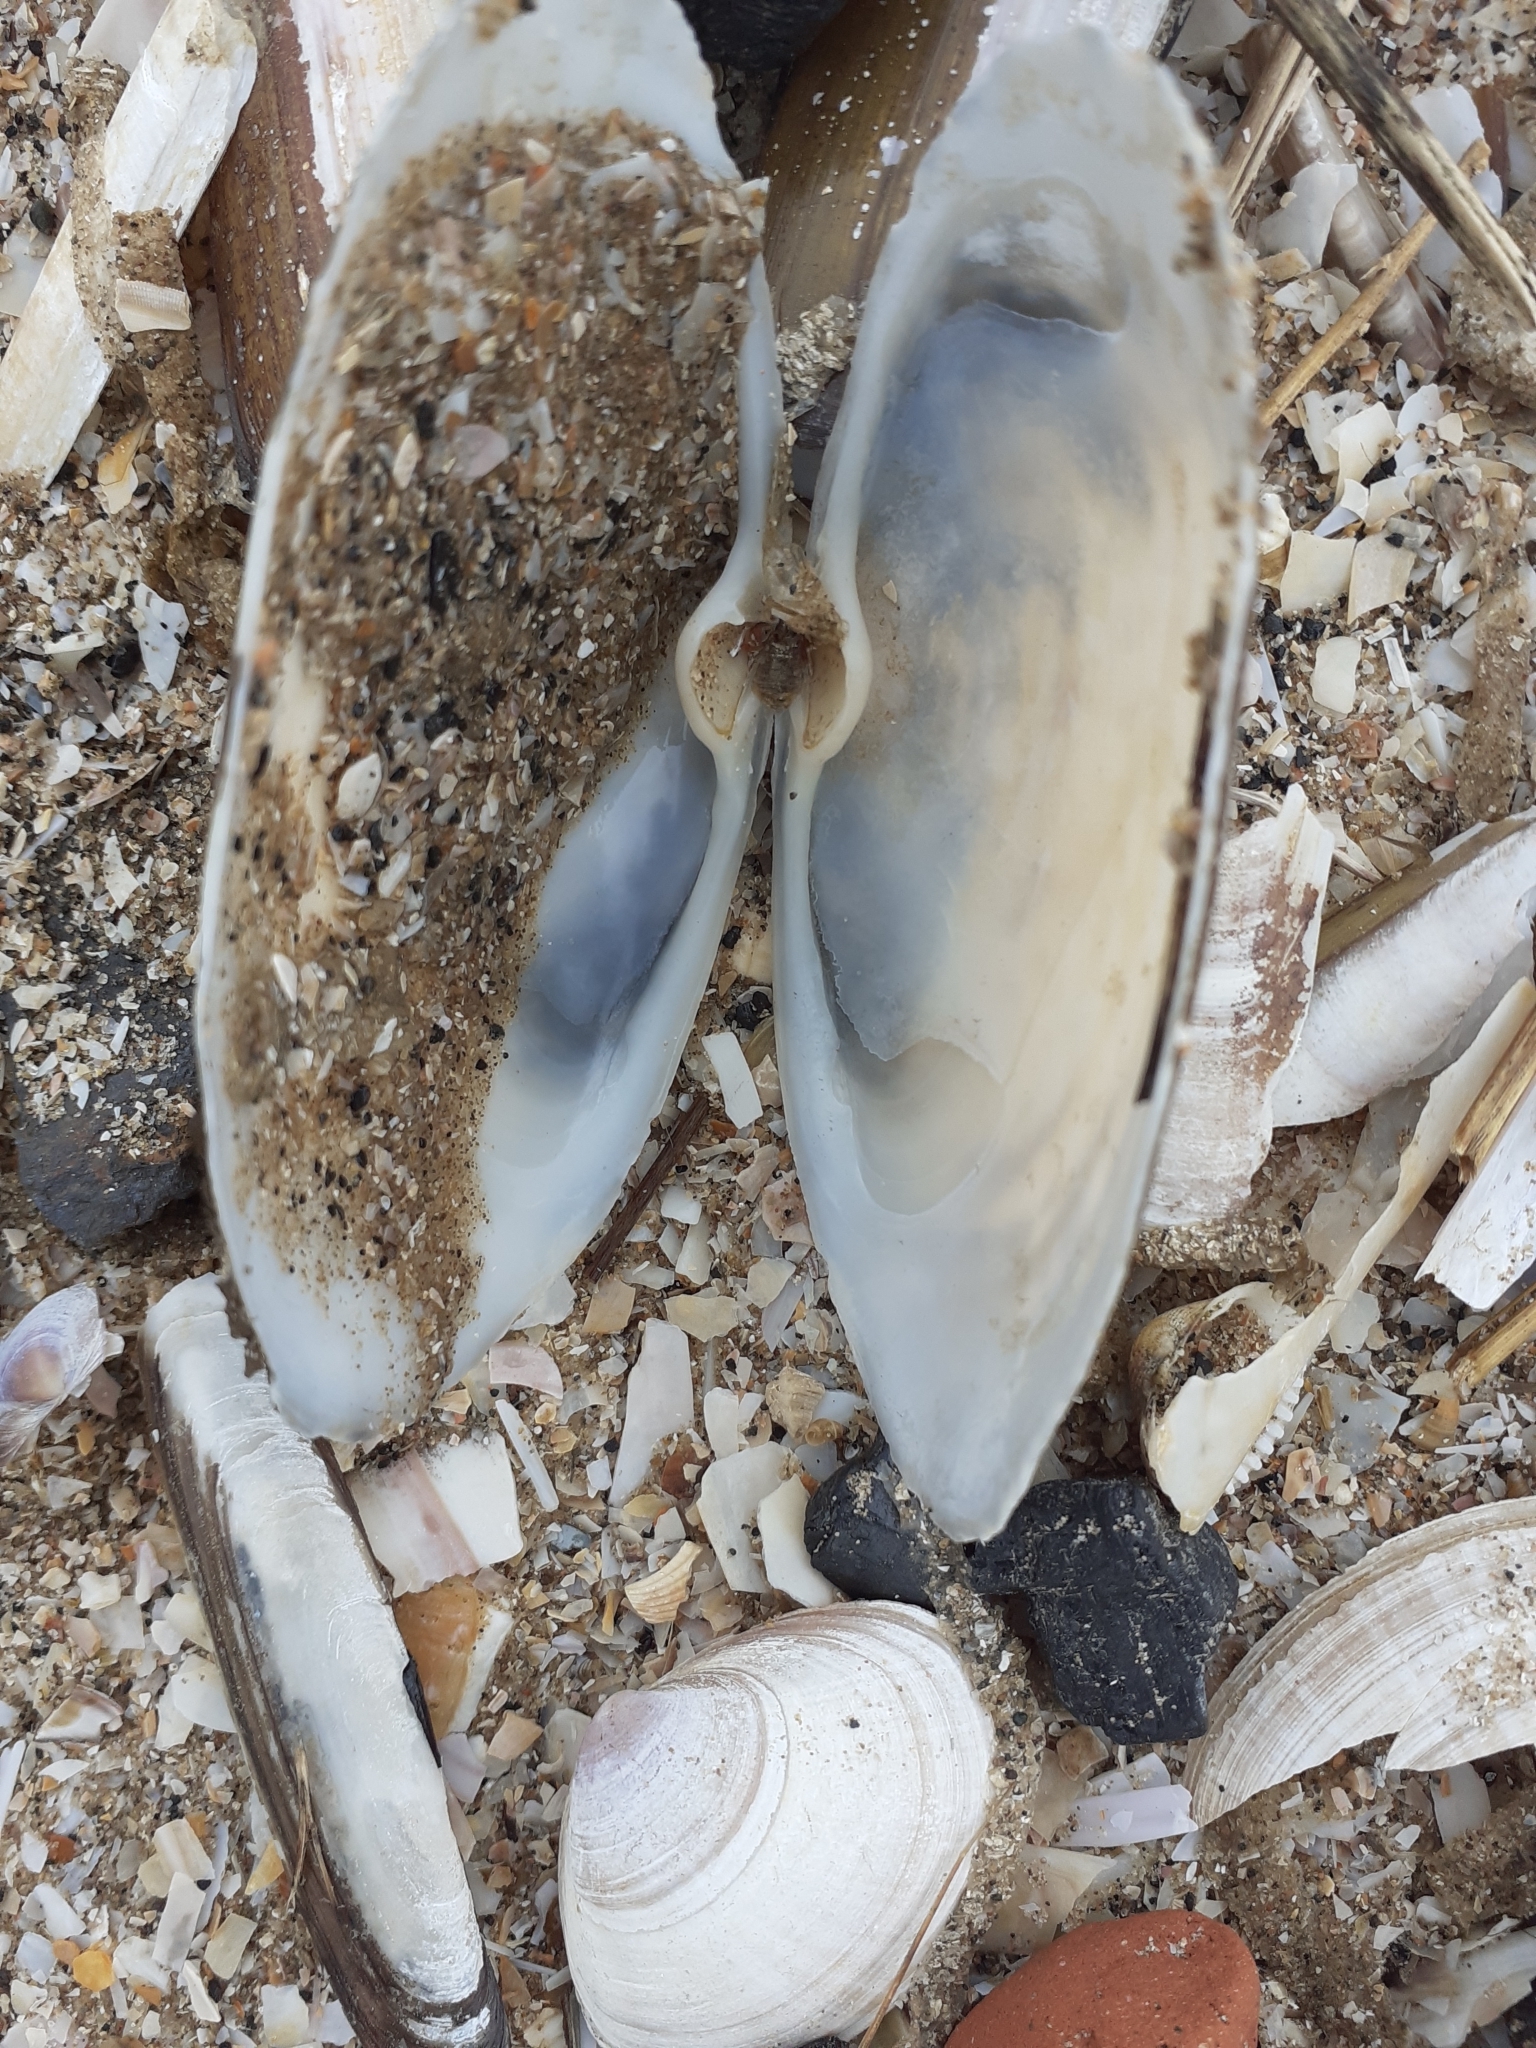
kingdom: Animalia
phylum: Mollusca
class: Bivalvia
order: Venerida
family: Mactridae
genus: Lutraria
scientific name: Lutraria lutraria
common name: Common otter shell
